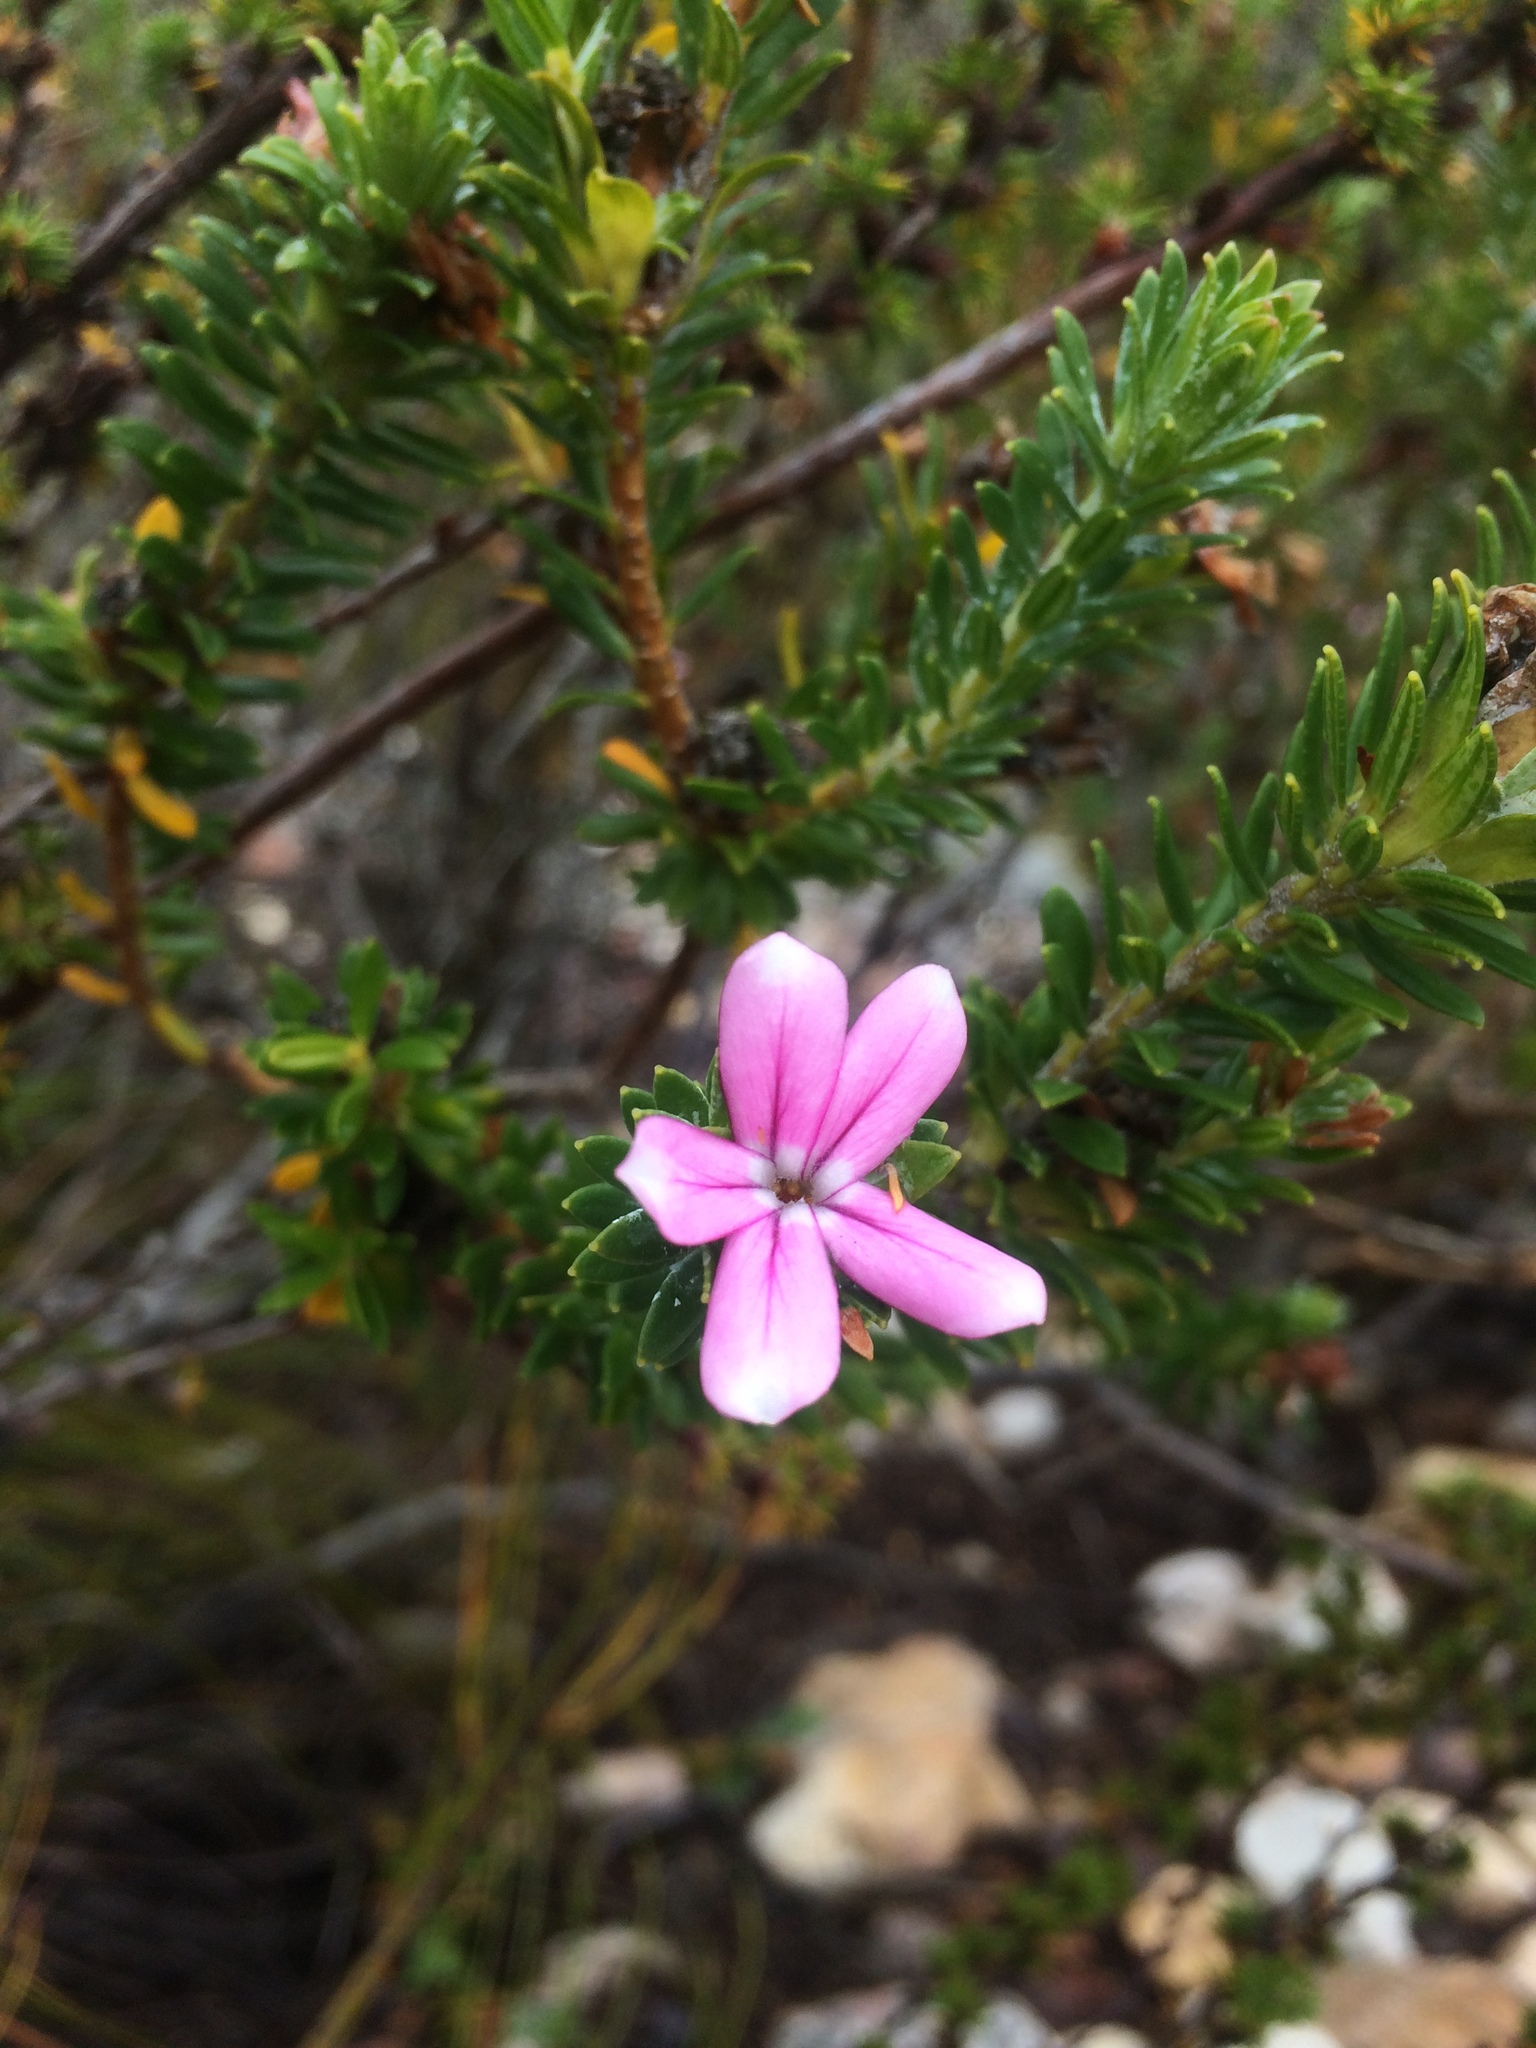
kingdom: Plantae
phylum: Tracheophyta
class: Magnoliopsida
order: Sapindales
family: Rutaceae
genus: Adenandra
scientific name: Adenandra gummifera
